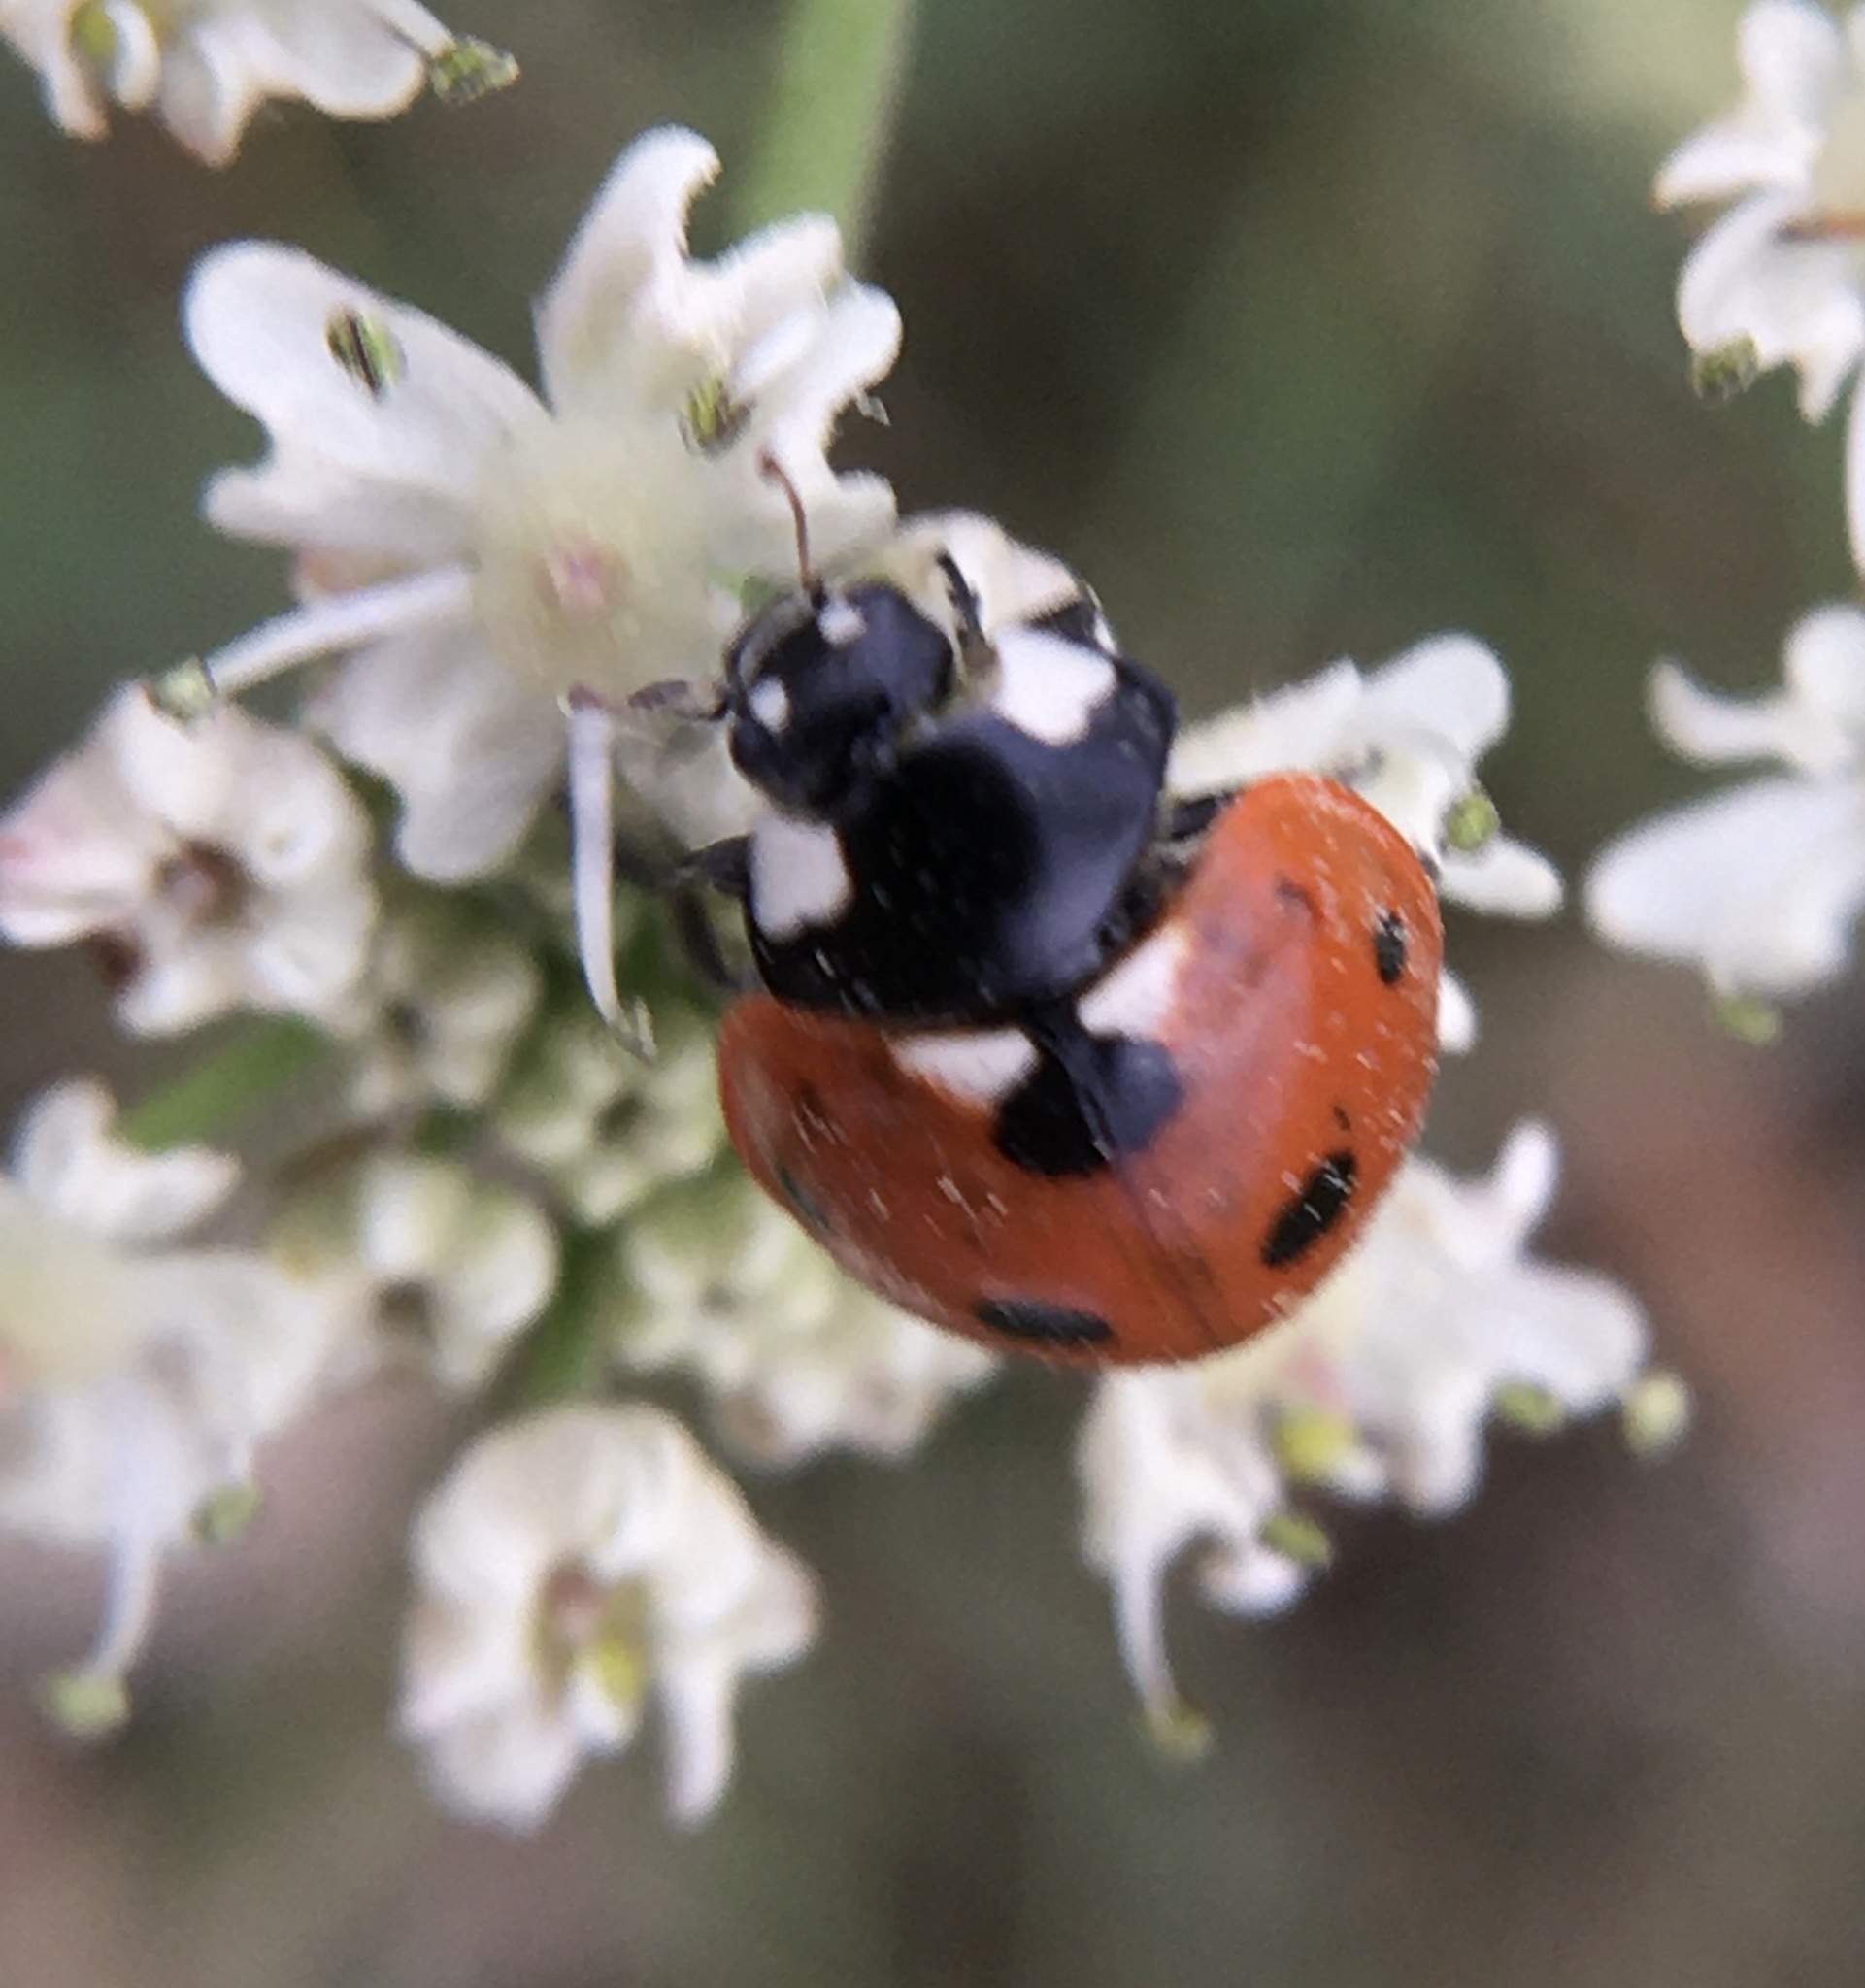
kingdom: Animalia
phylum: Arthropoda
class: Insecta
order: Coleoptera
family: Coccinellidae
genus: Coccinella
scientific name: Coccinella septempunctata
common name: Sevenspotted lady beetle
